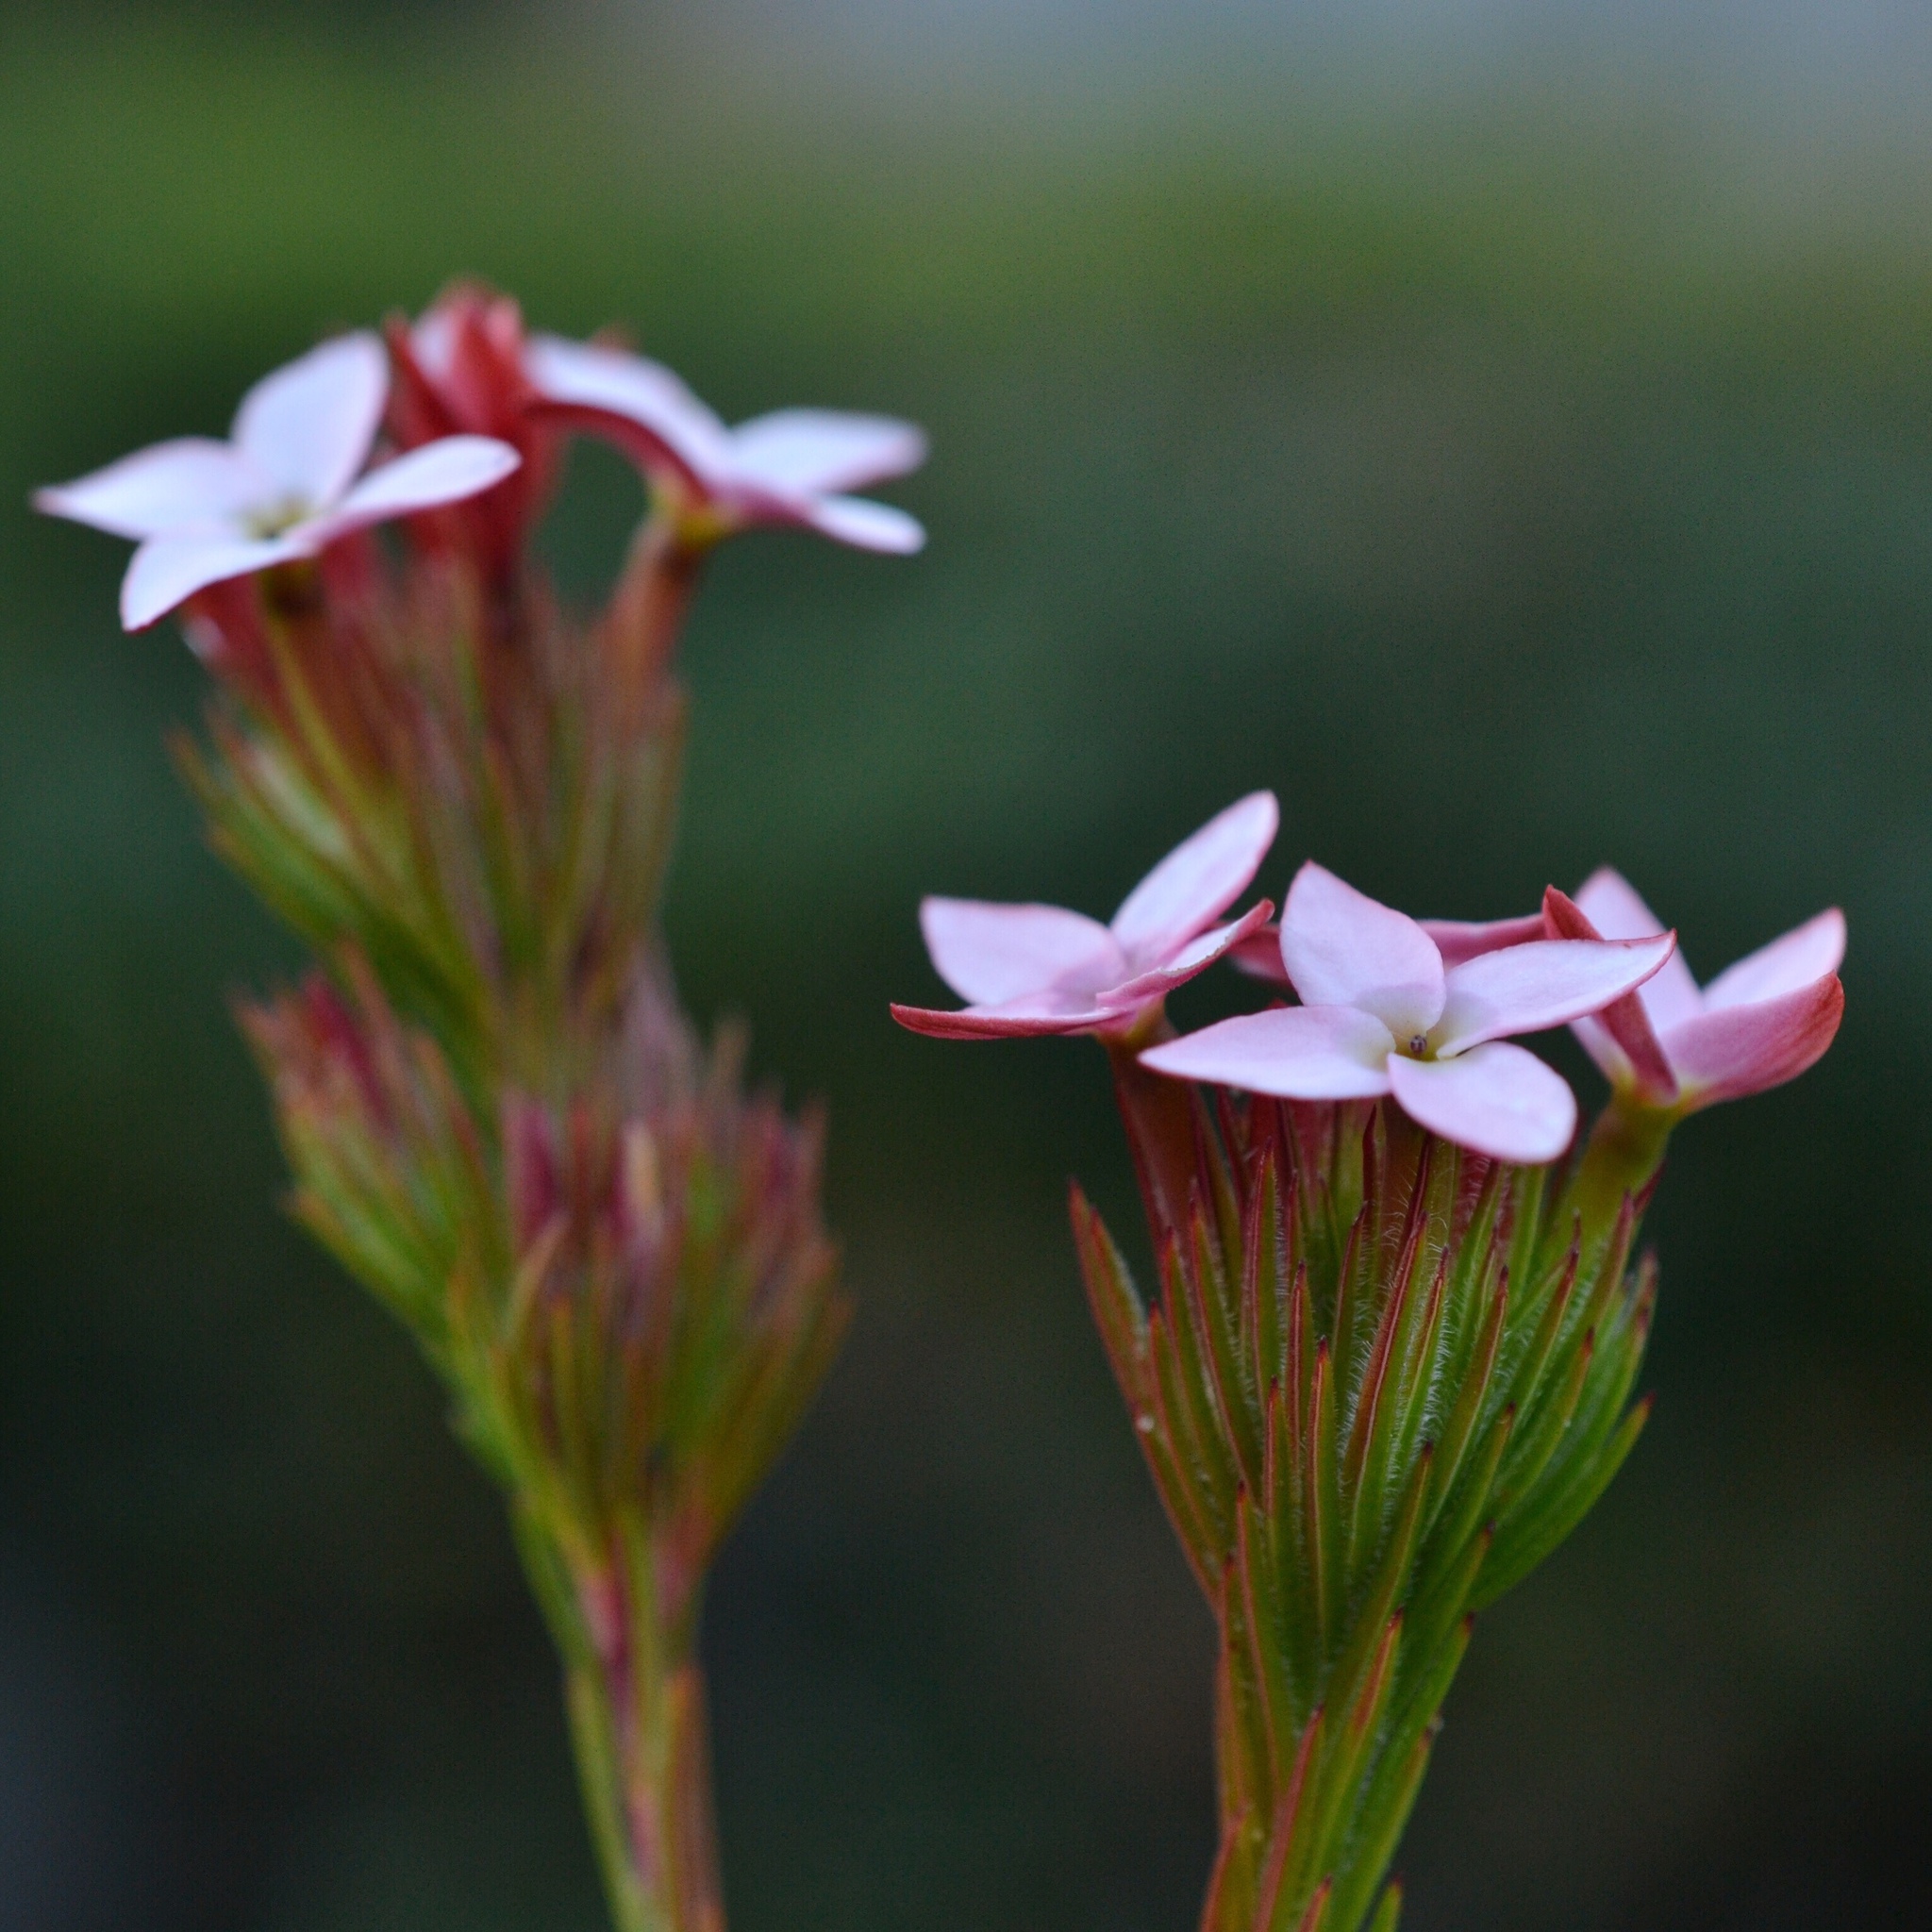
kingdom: Plantae
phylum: Tracheophyta
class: Magnoliopsida
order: Ericales
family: Ericaceae
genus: Erica
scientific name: Erica fastigiata
